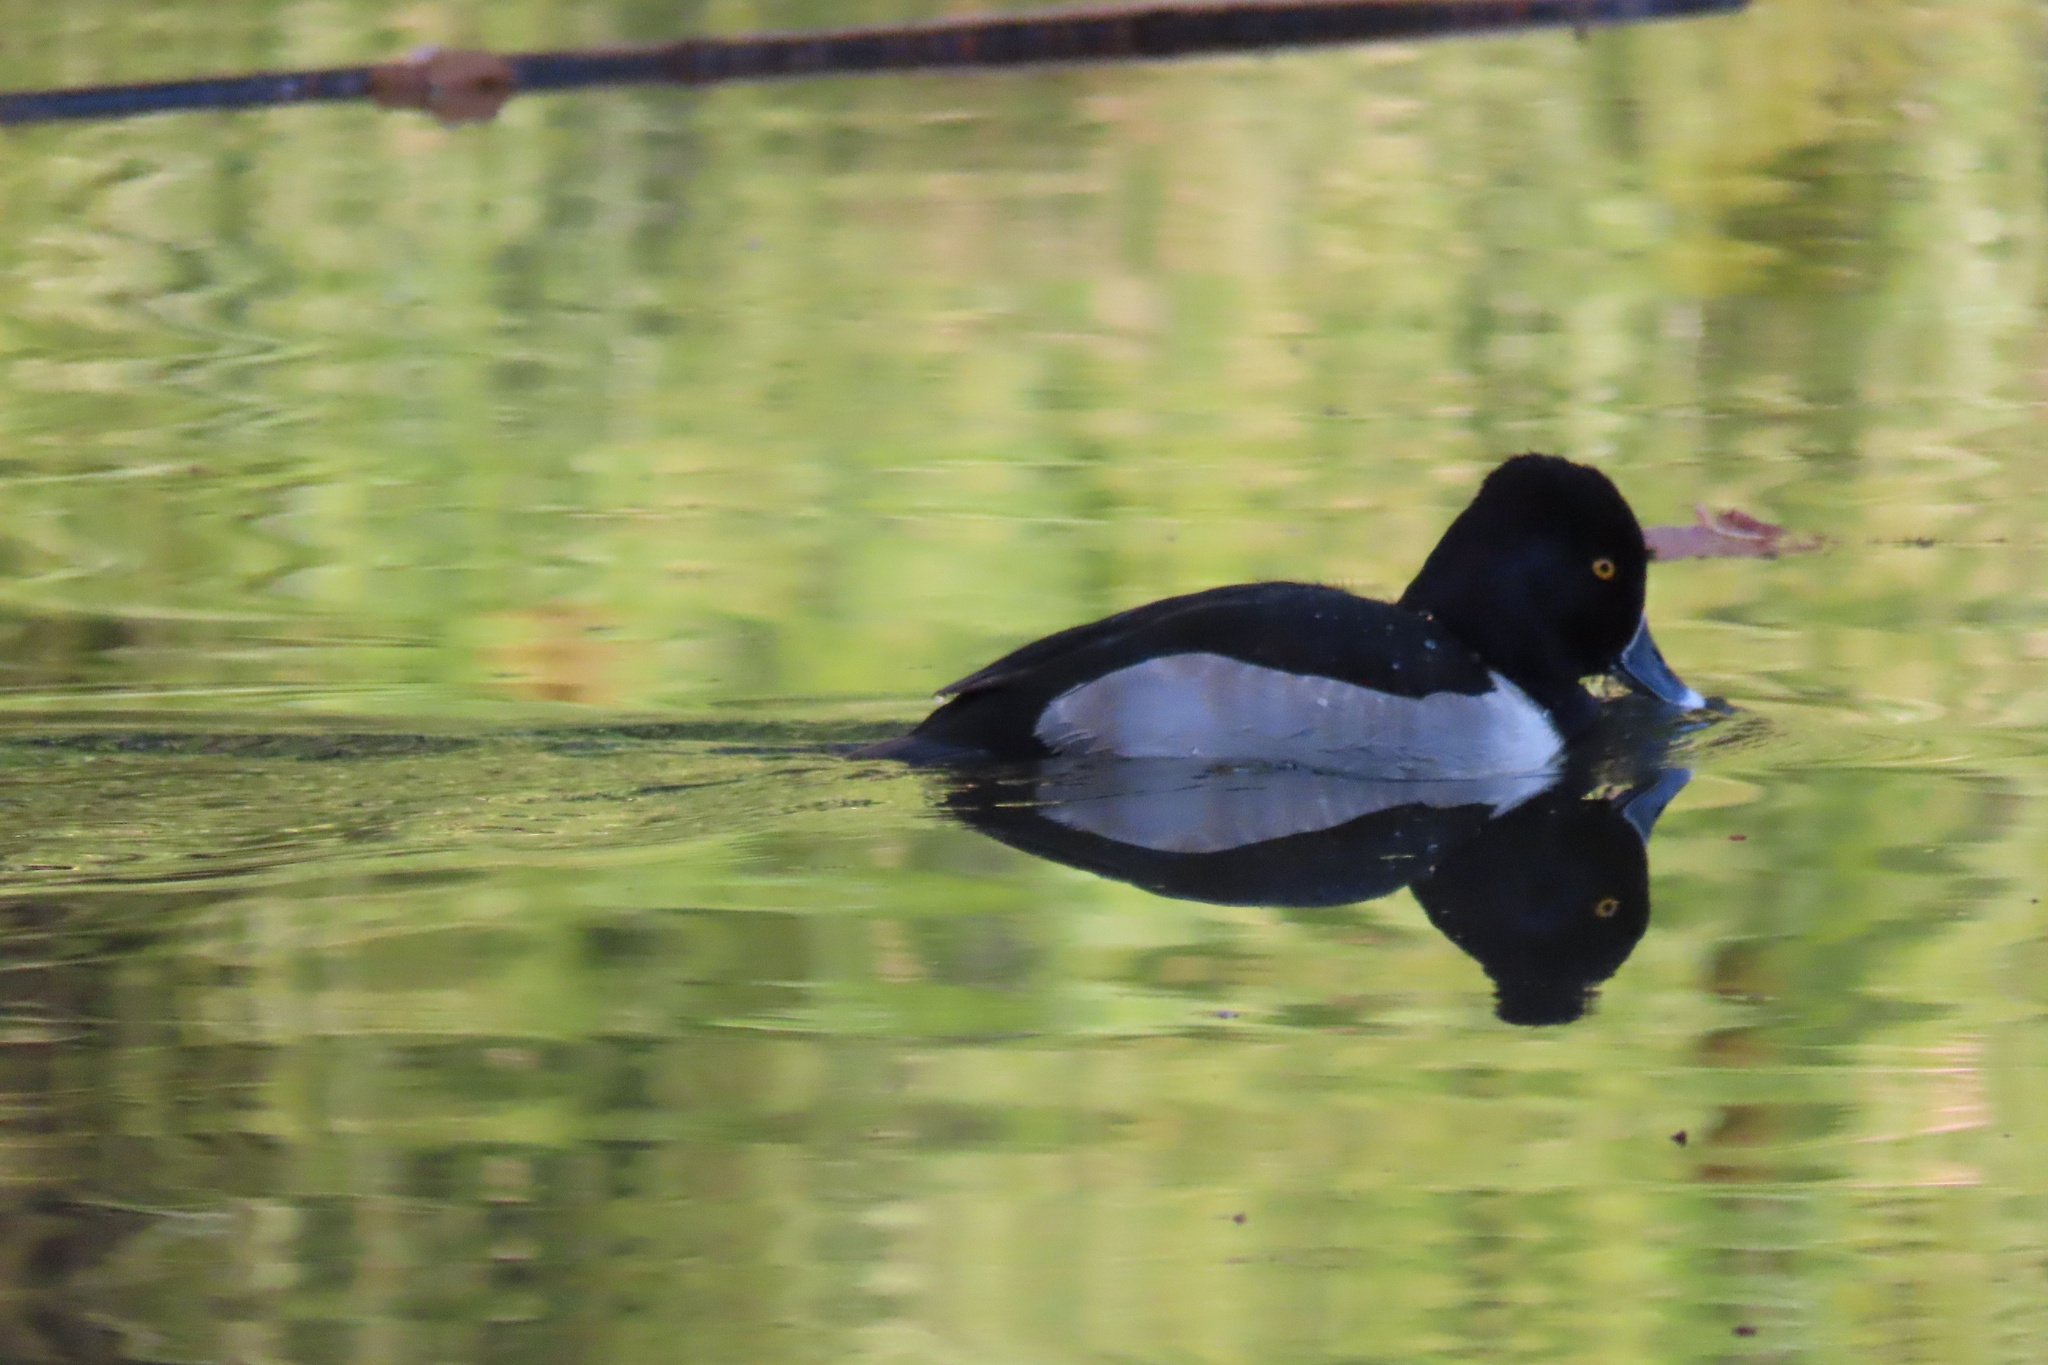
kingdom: Animalia
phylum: Chordata
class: Aves
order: Anseriformes
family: Anatidae
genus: Aythya
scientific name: Aythya collaris
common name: Ring-necked duck
